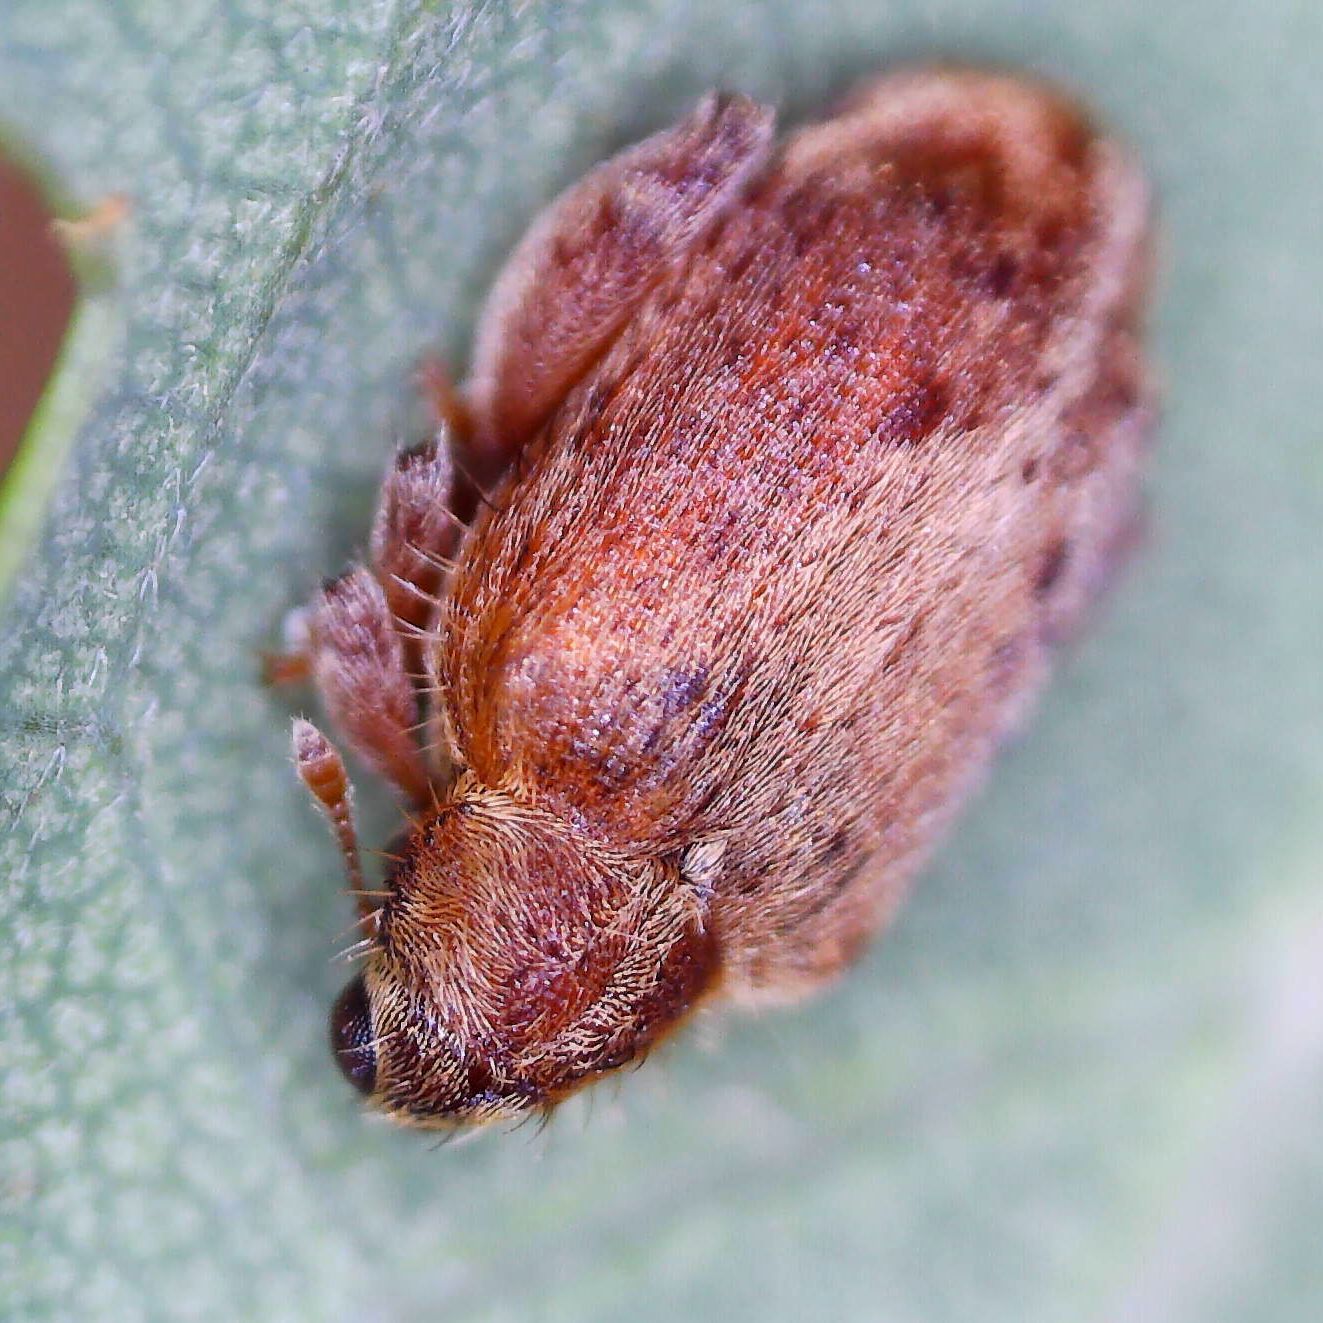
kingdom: Animalia
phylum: Arthropoda
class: Insecta
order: Coleoptera
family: Curculionidae
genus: Orchestes
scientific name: Orchestes quercus
